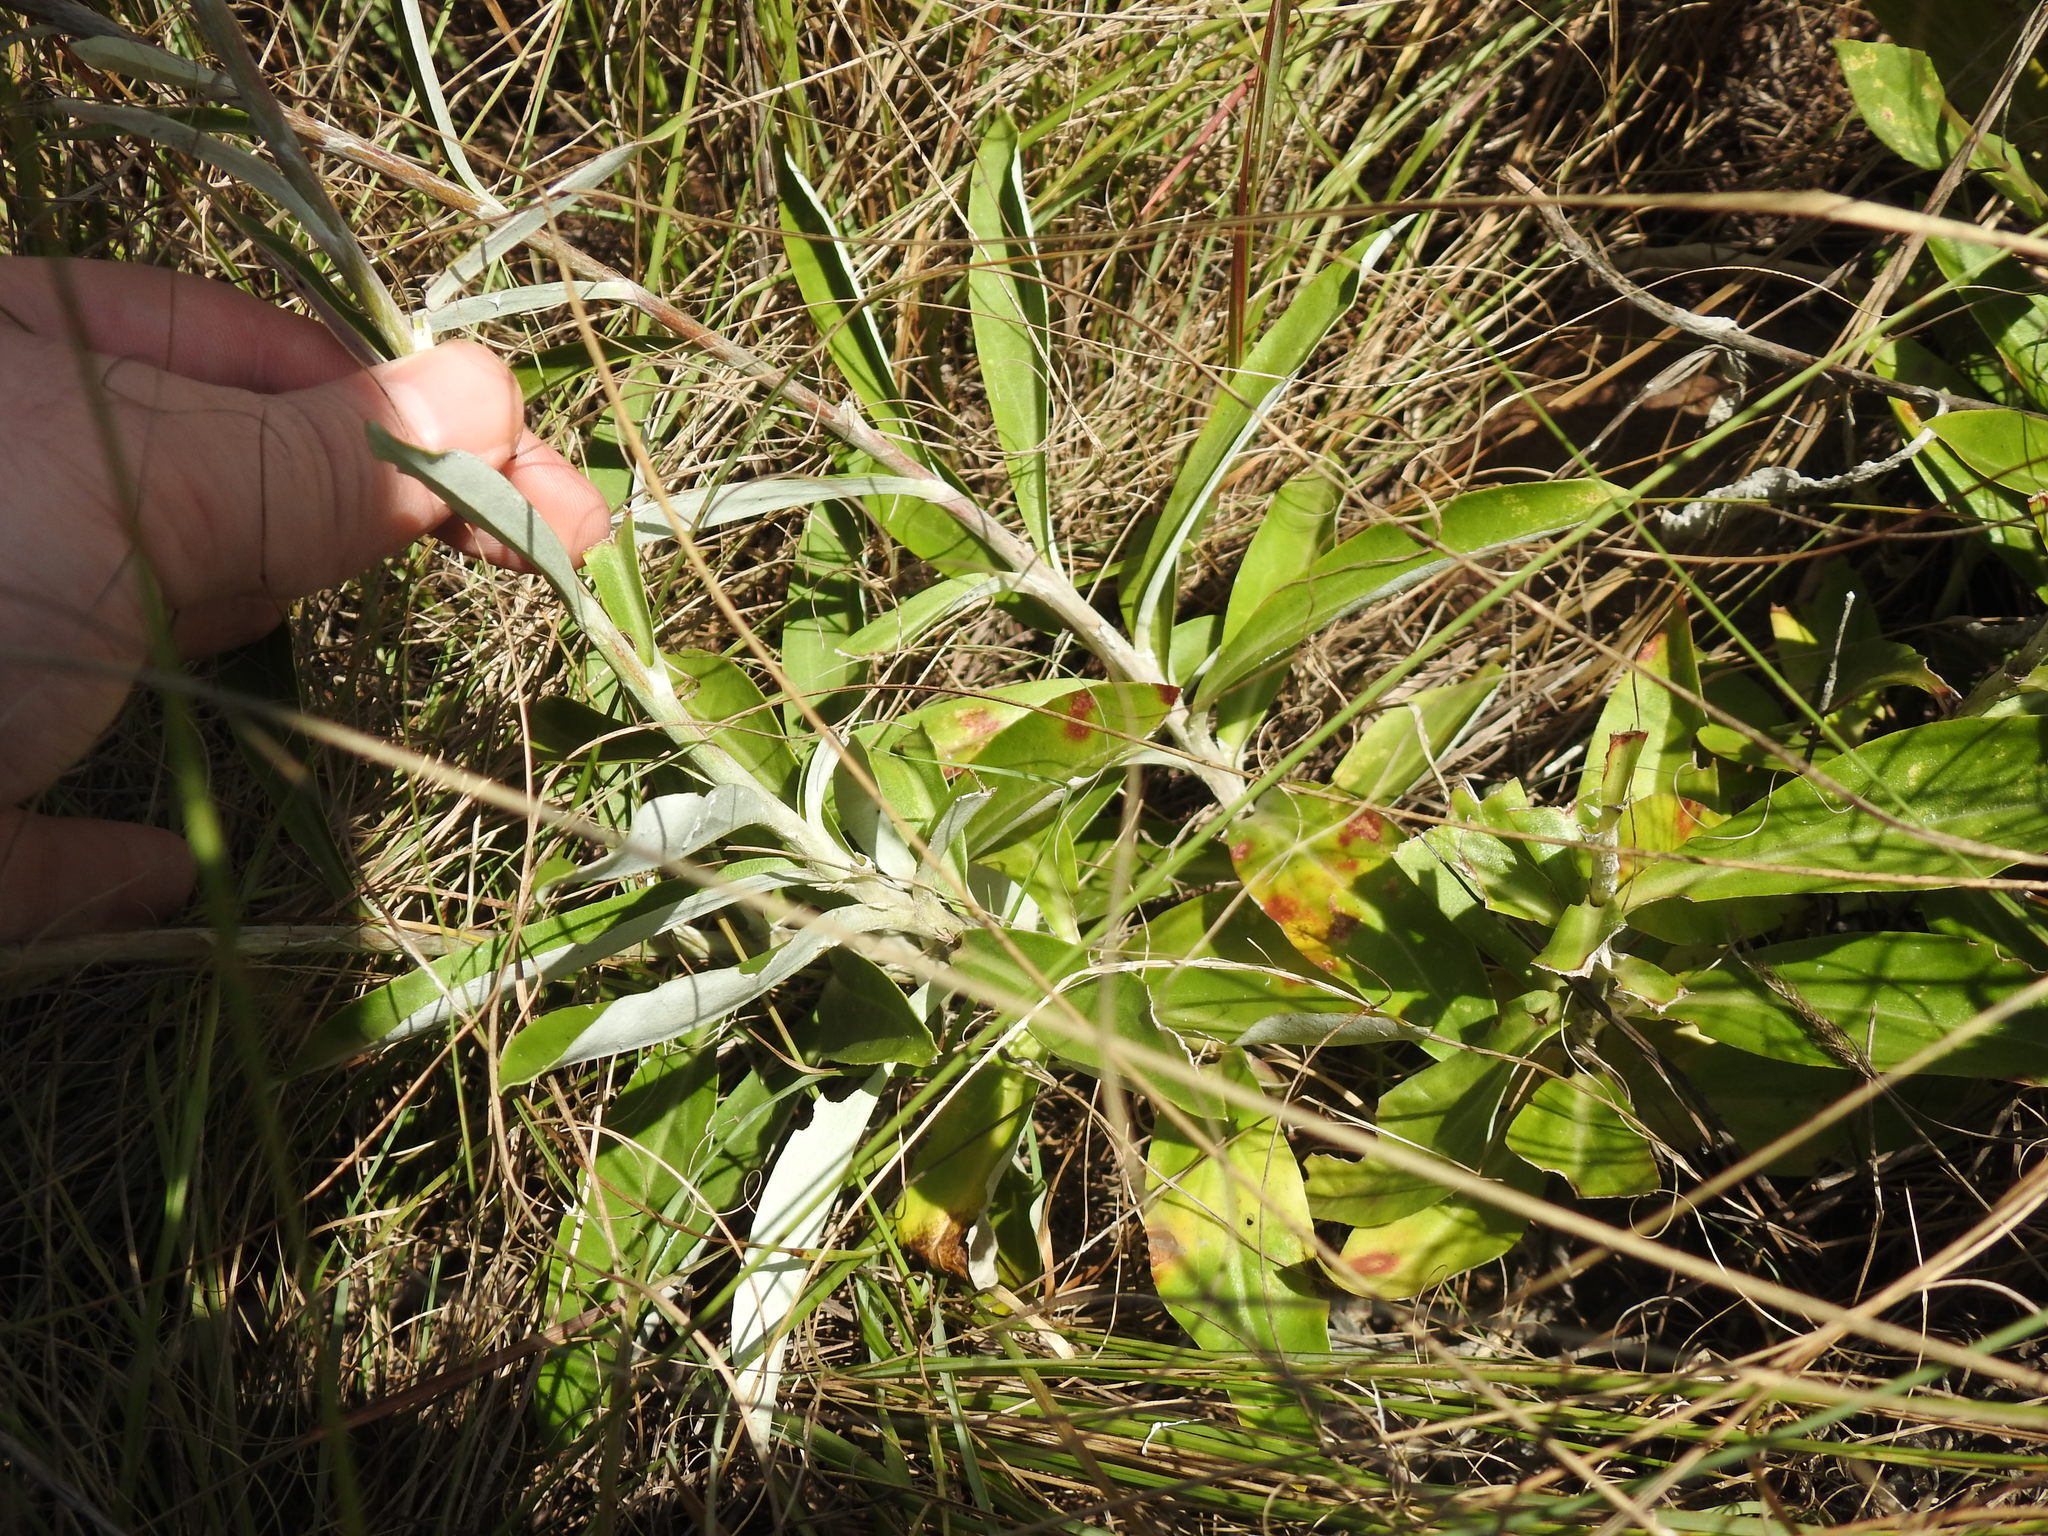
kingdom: Plantae
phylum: Tracheophyta
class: Magnoliopsida
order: Asterales
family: Asteraceae
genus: Macledium
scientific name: Macledium zeyheri
